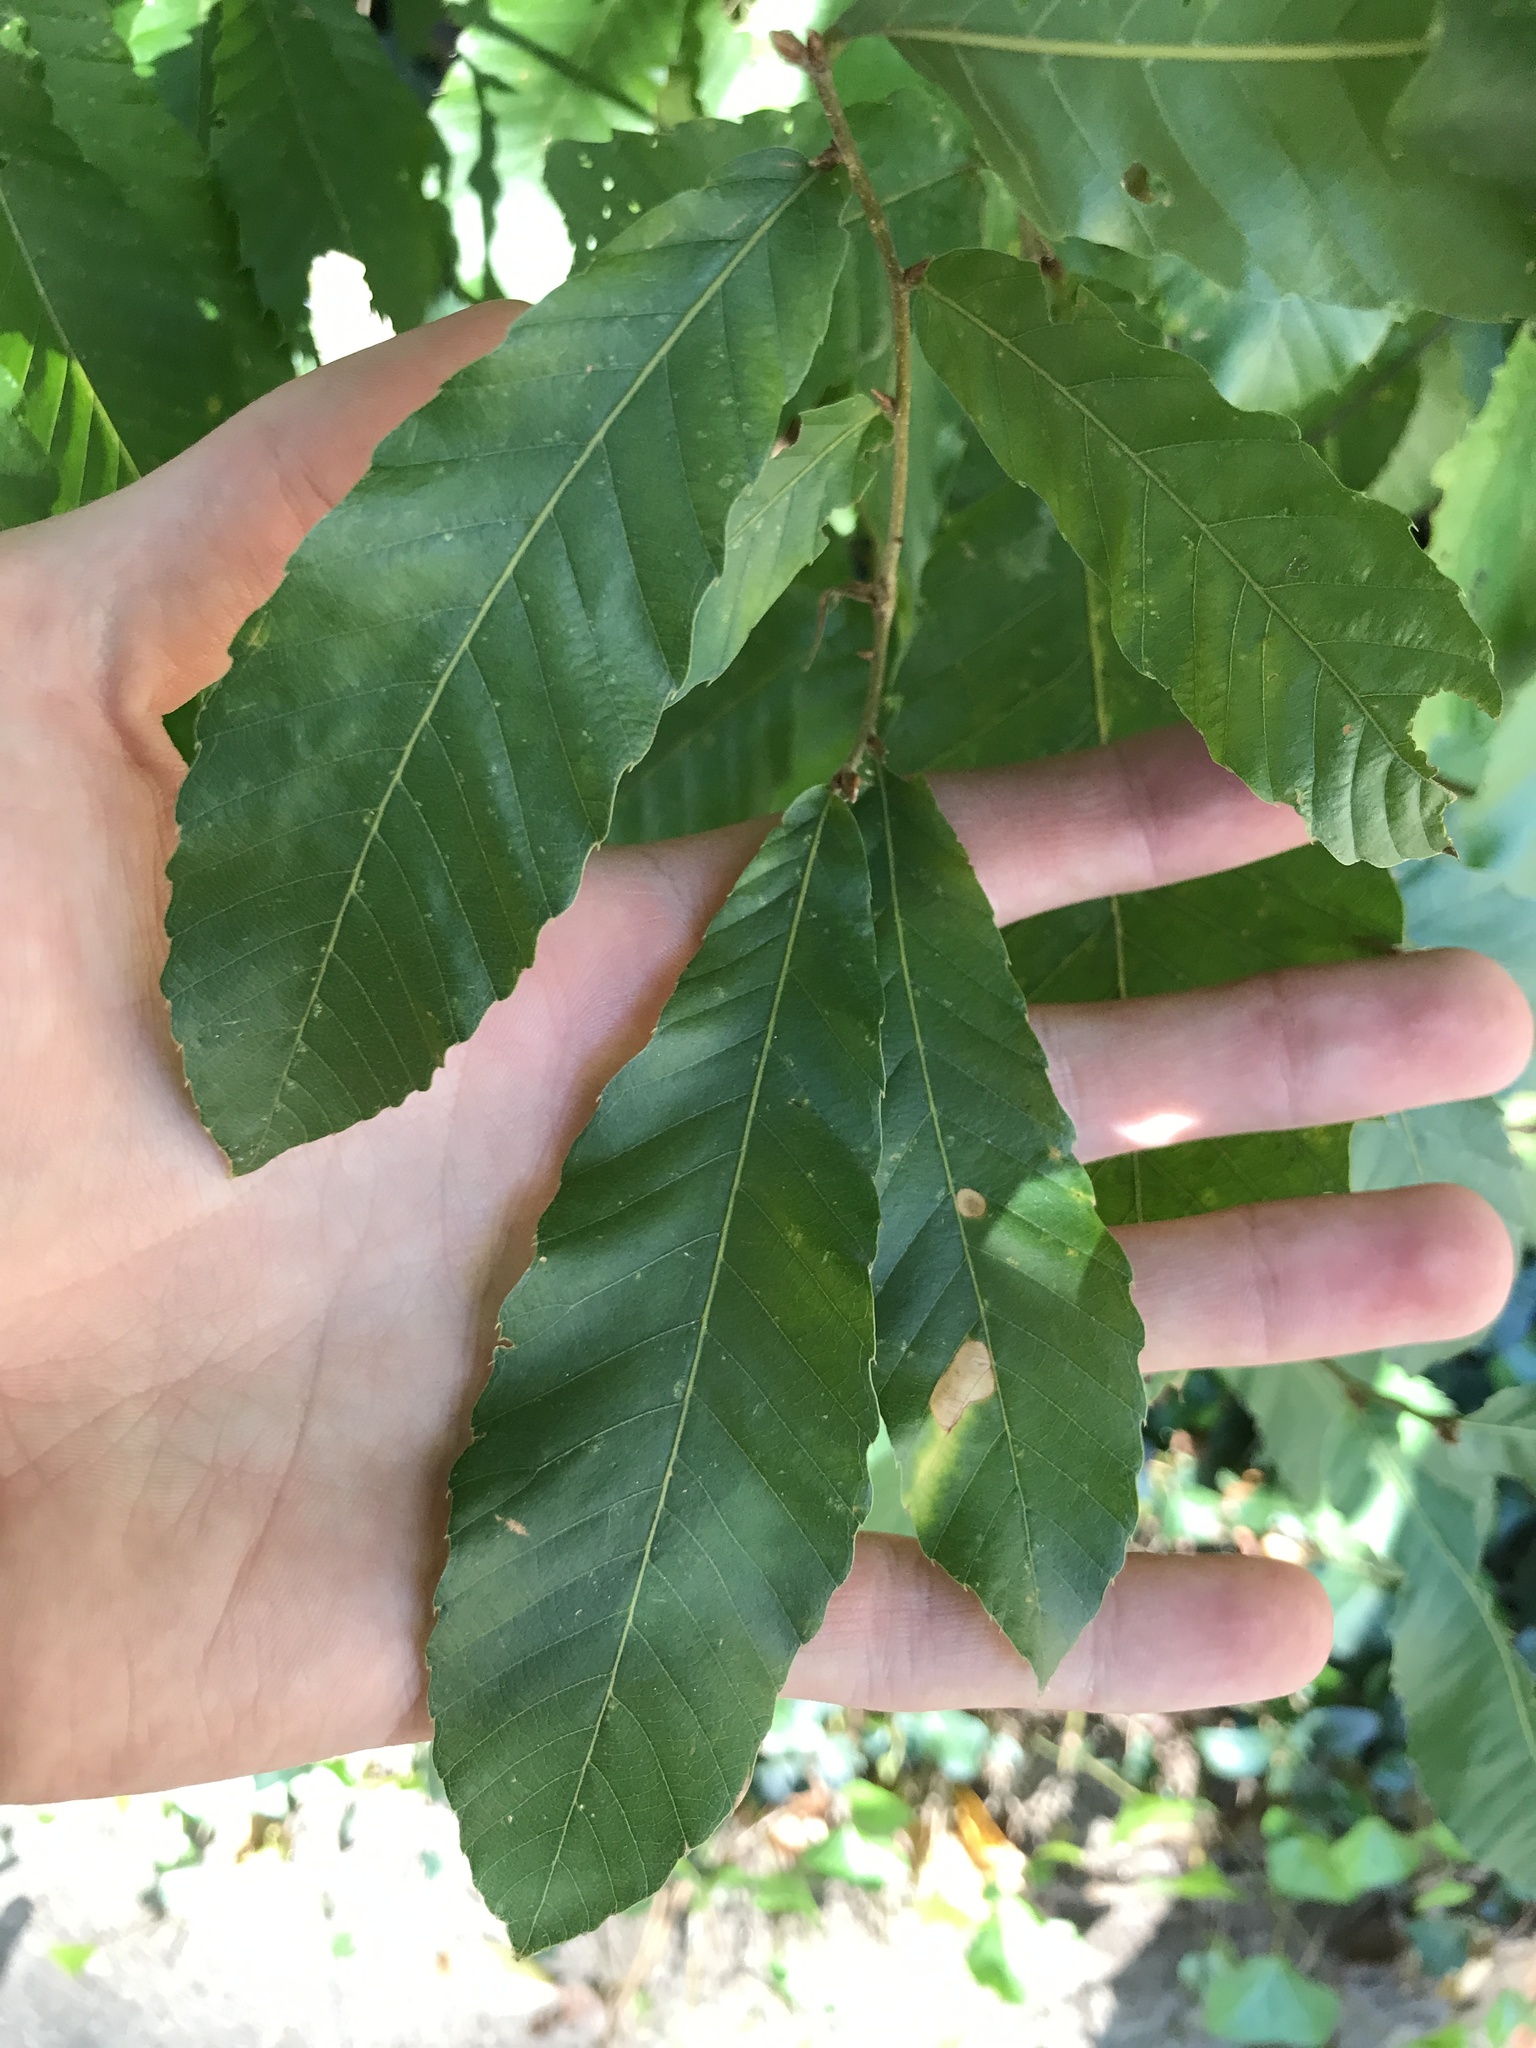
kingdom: Plantae
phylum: Tracheophyta
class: Magnoliopsida
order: Fagales
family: Fagaceae
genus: Quercus
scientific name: Quercus acutissima
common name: Sawtooth oak
